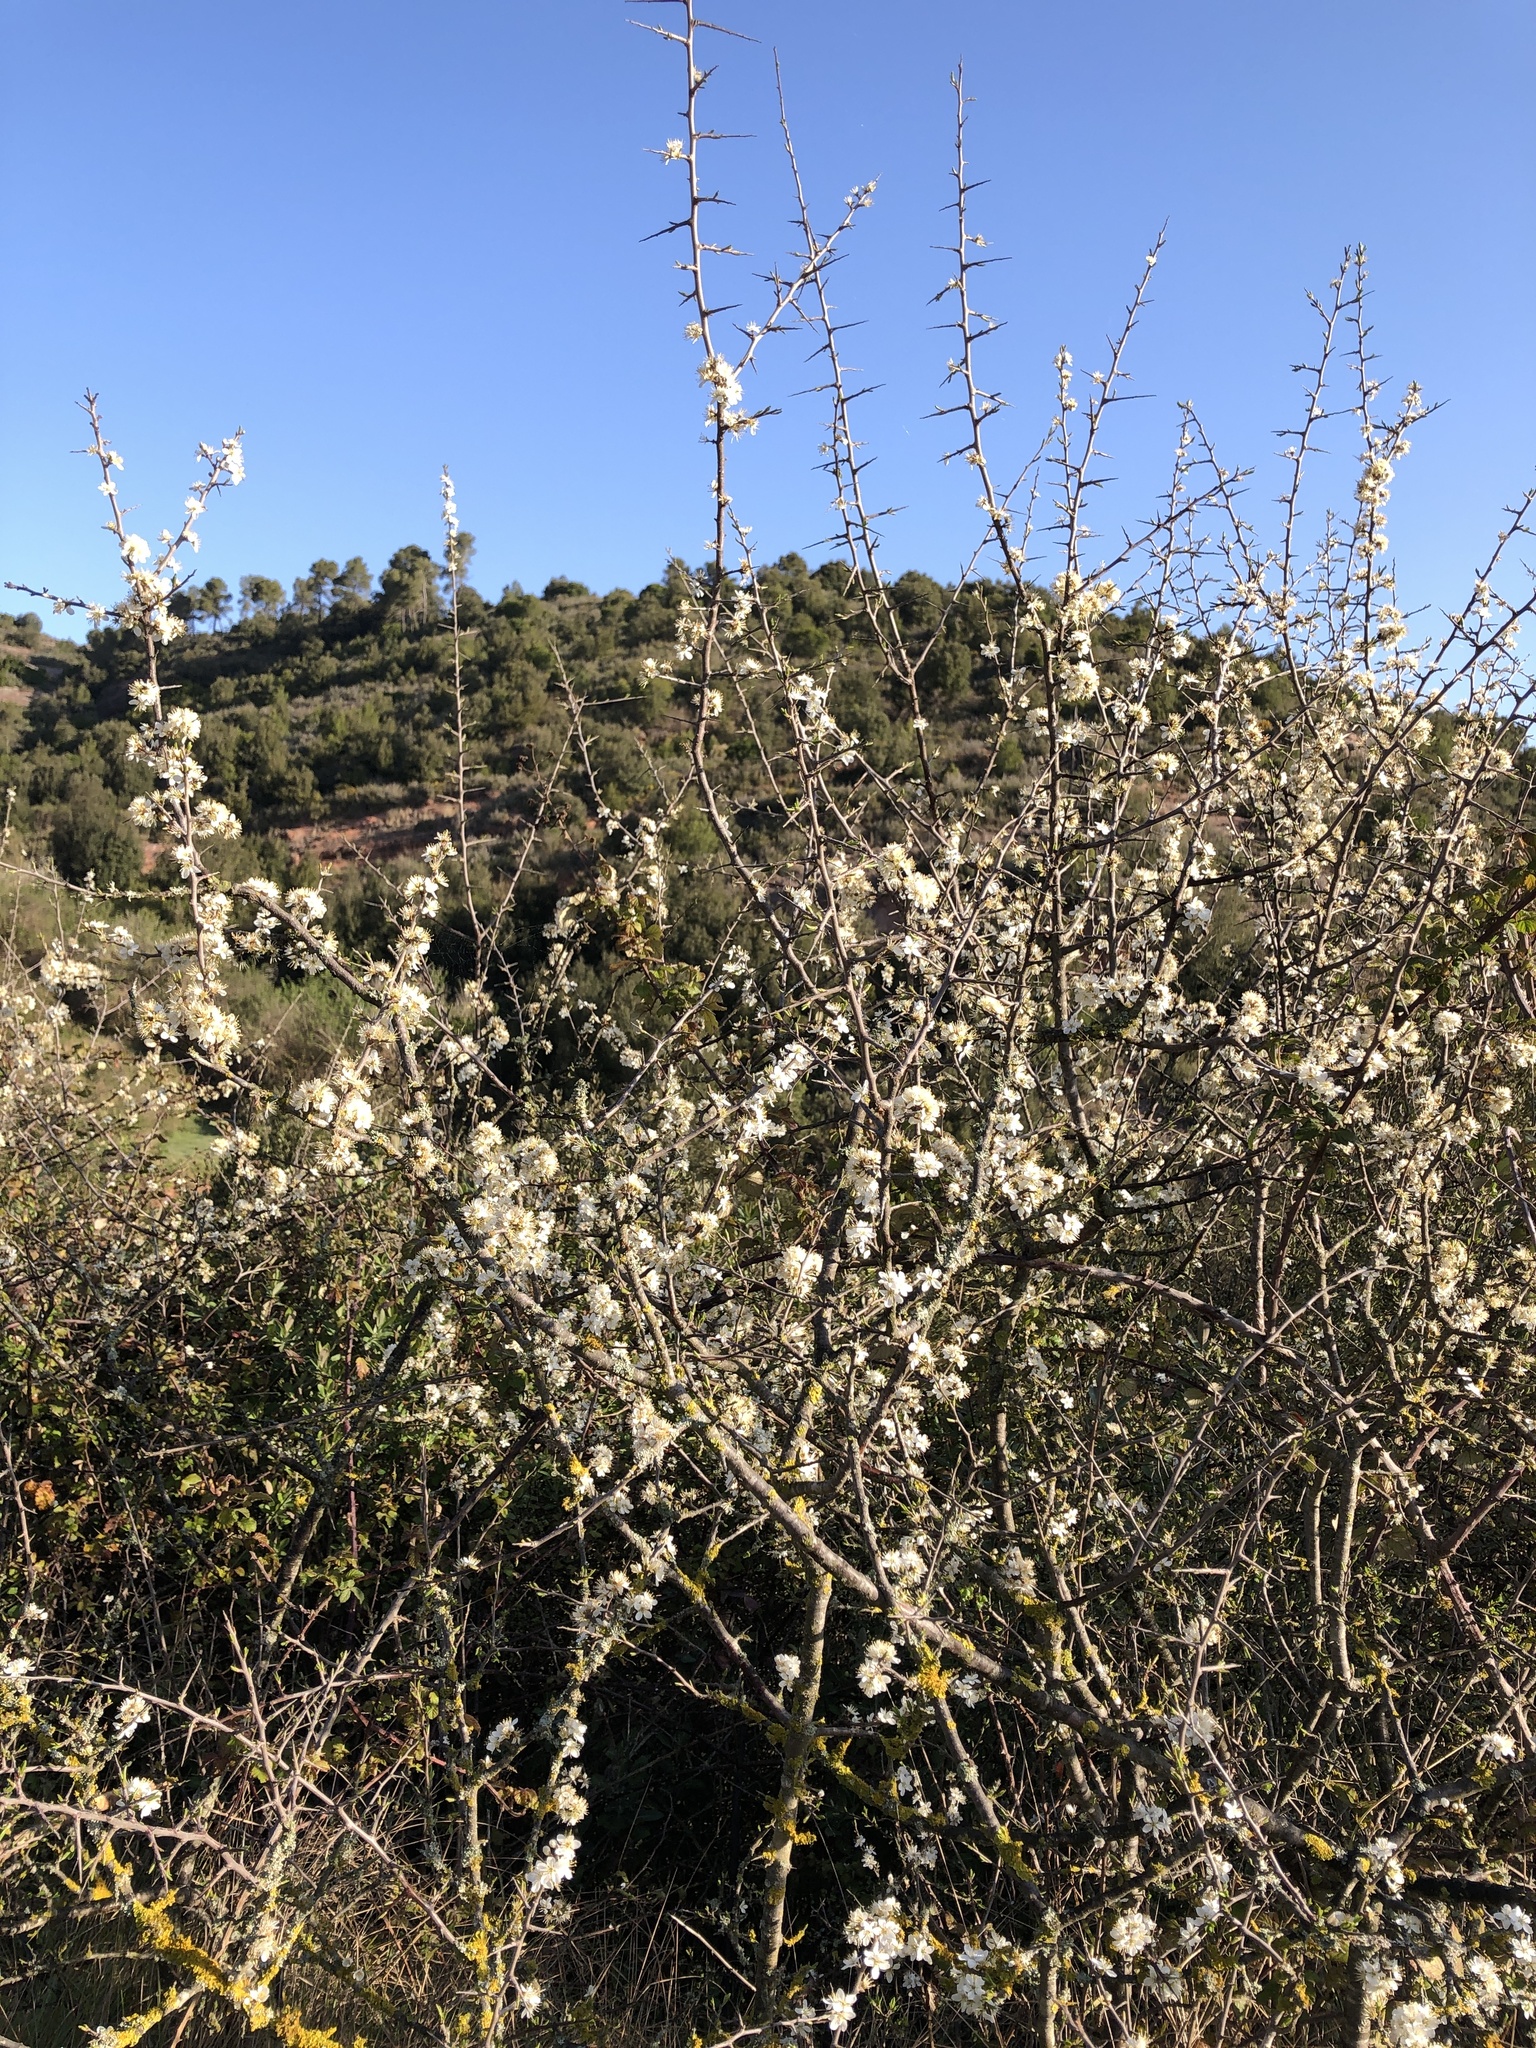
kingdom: Plantae
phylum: Tracheophyta
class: Magnoliopsida
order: Rosales
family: Rosaceae
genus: Prunus
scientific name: Prunus spinosa
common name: Blackthorn
